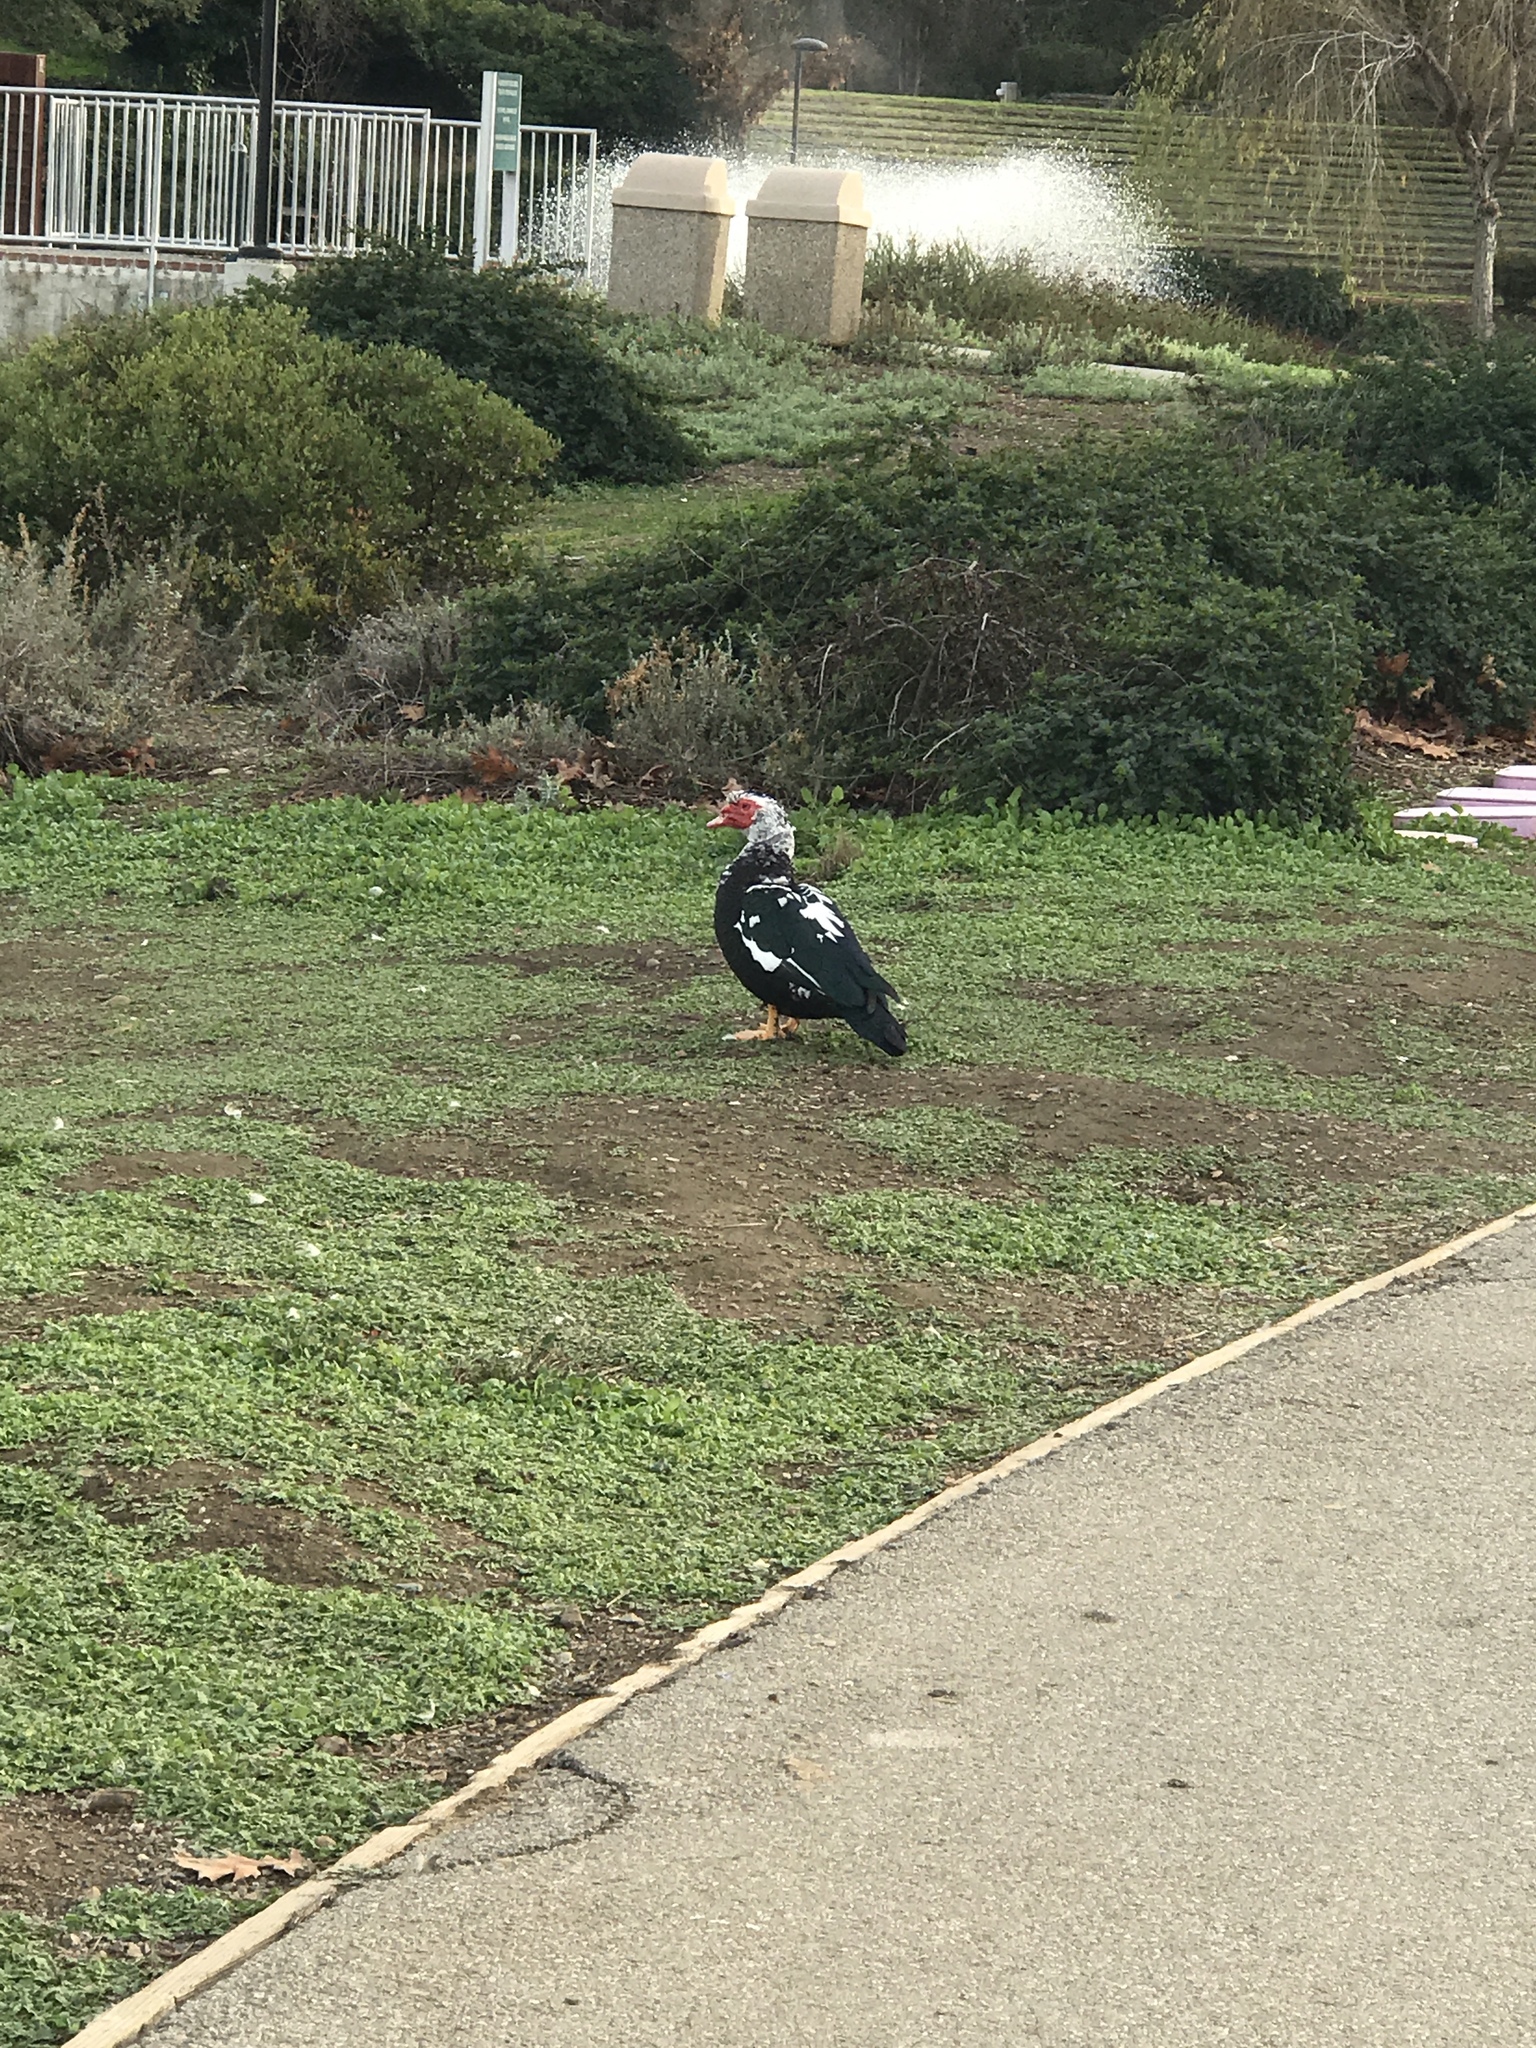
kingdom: Animalia
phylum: Chordata
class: Aves
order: Anseriformes
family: Anatidae
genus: Cairina
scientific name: Cairina moschata
